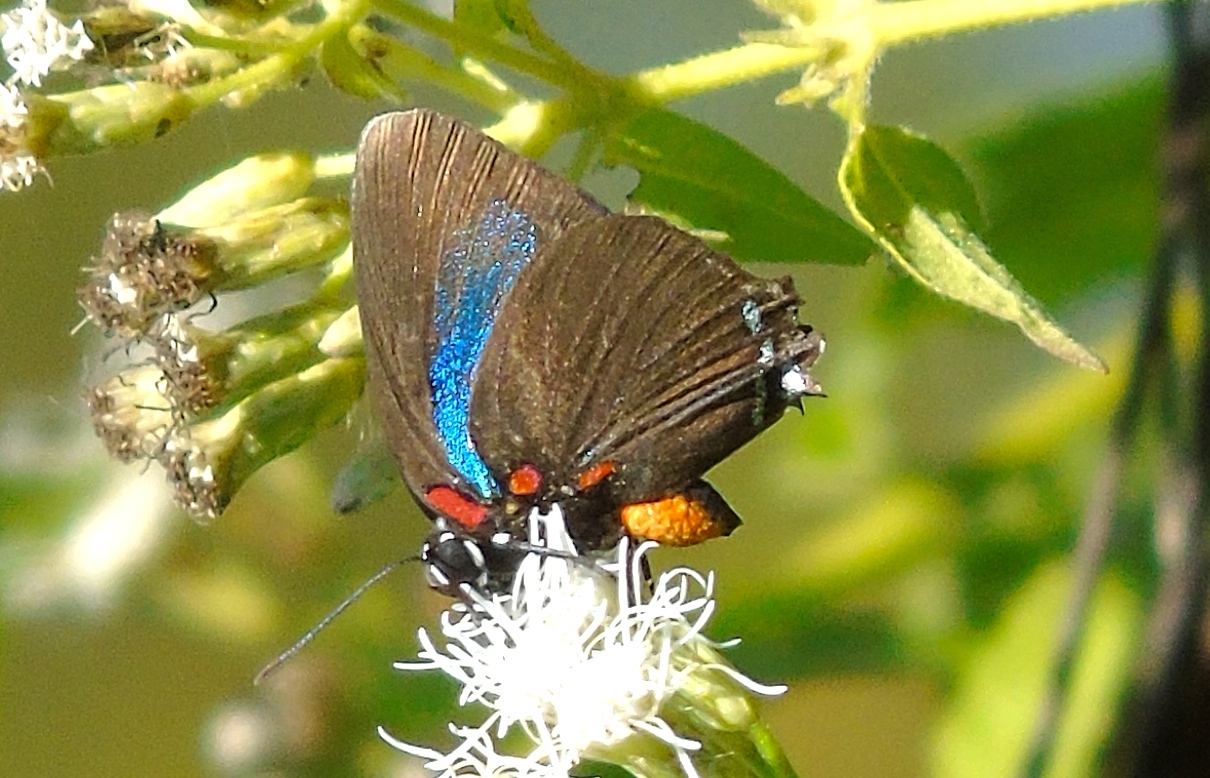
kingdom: Animalia
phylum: Arthropoda
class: Insecta
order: Lepidoptera
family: Lycaenidae
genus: Atlides
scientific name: Atlides
